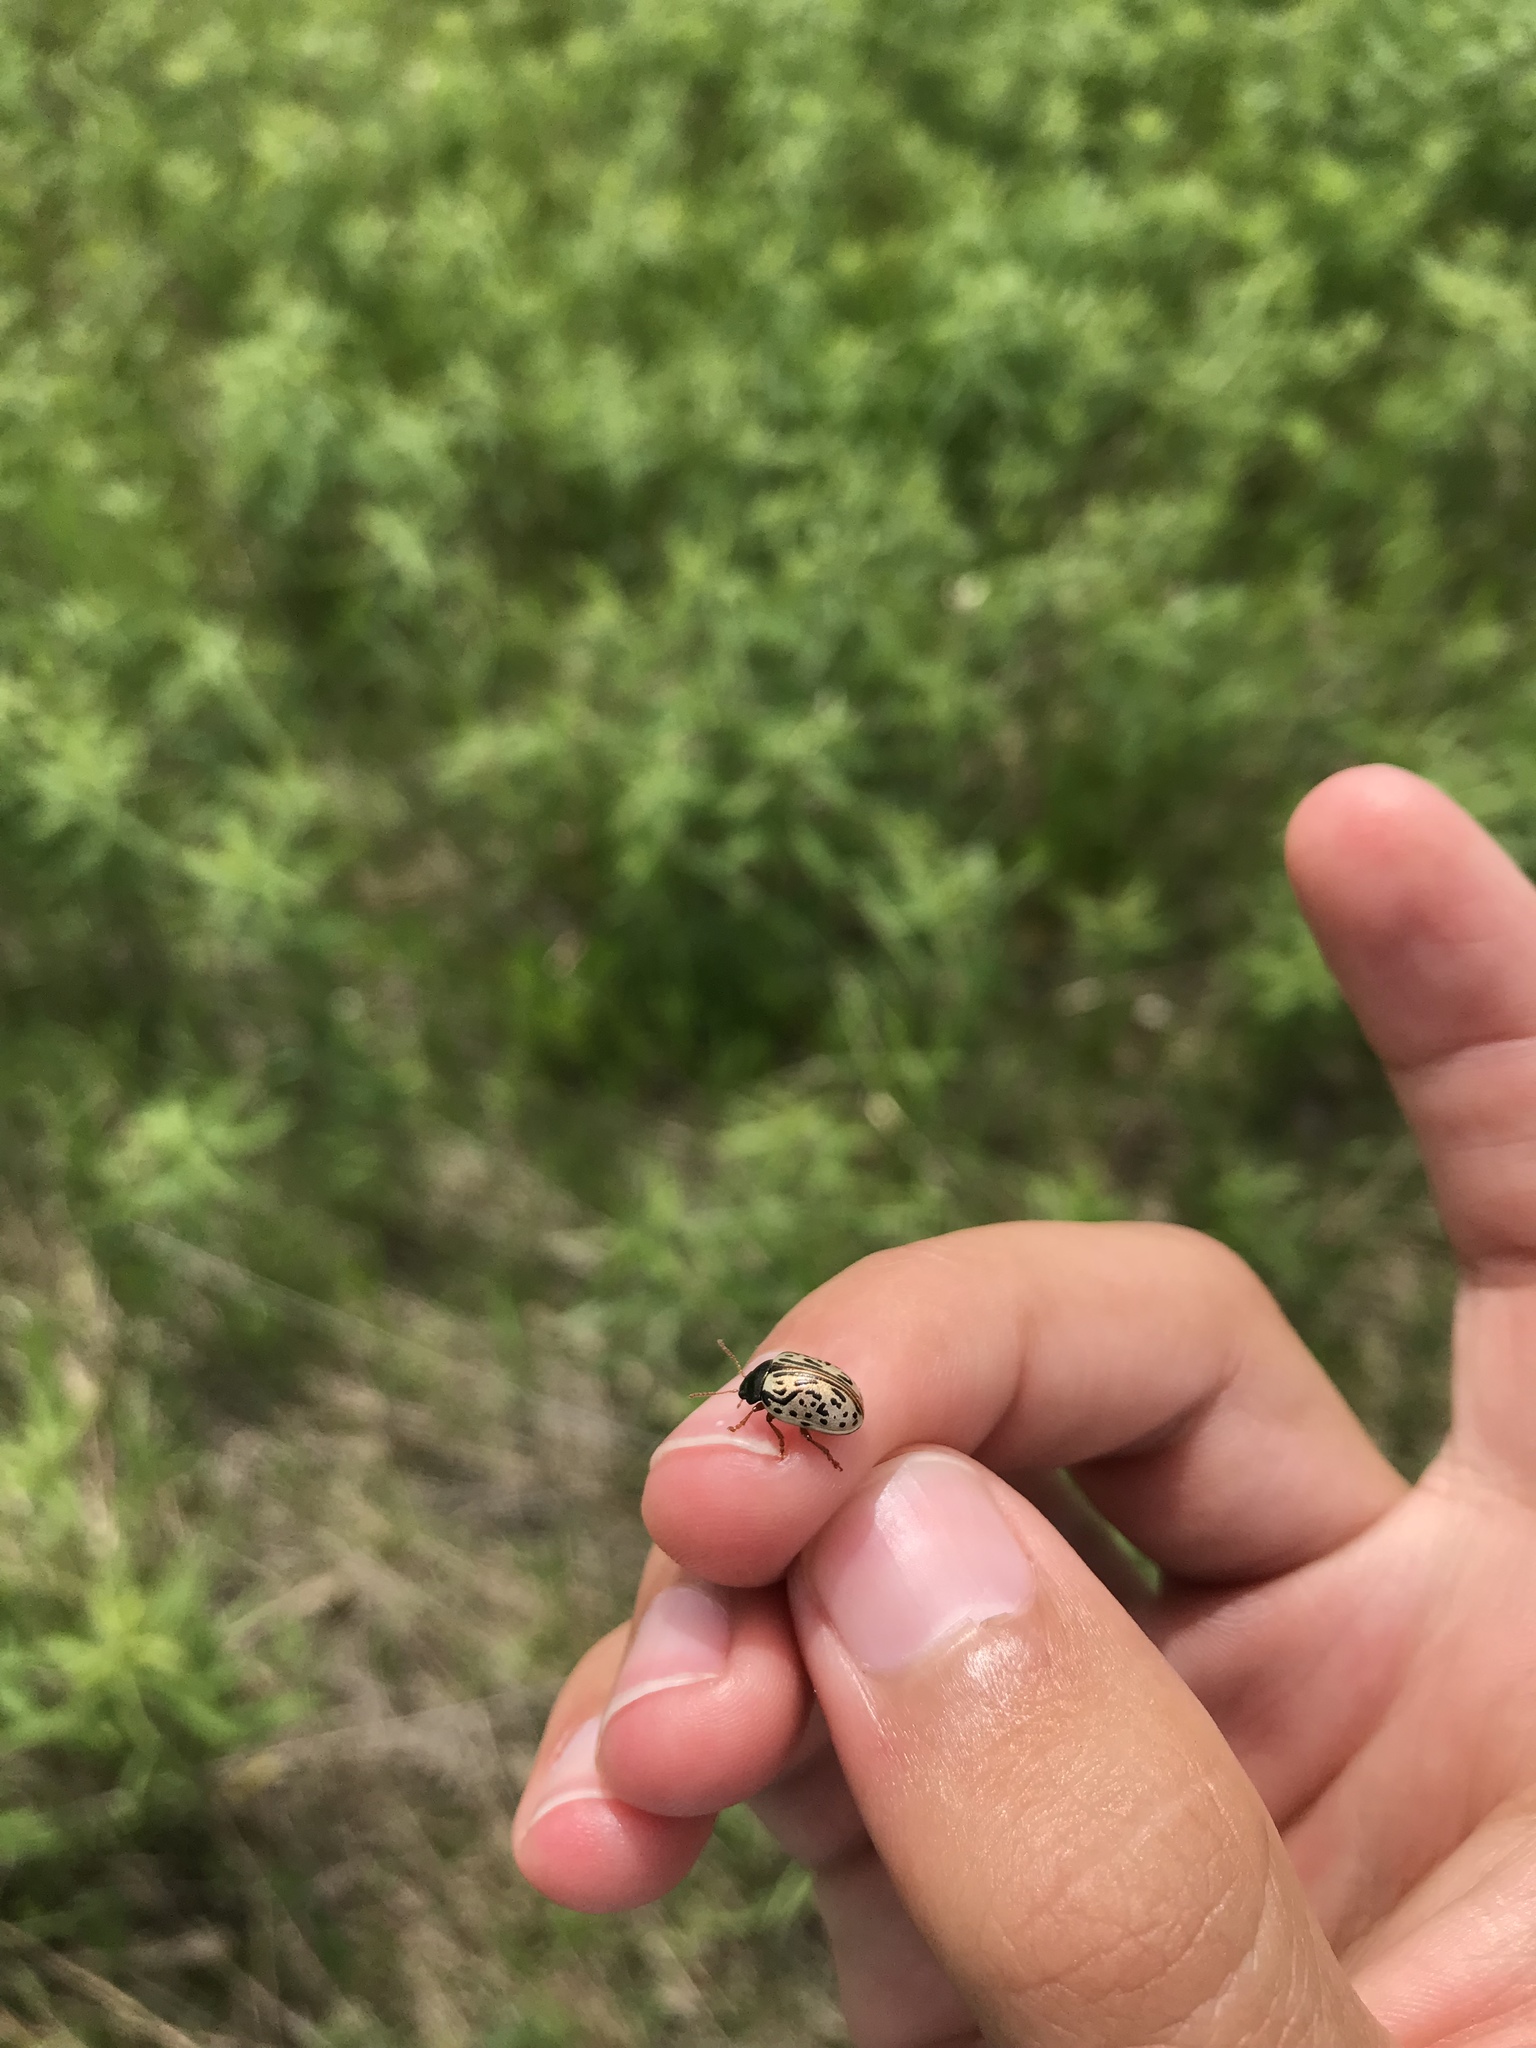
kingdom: Animalia
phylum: Arthropoda
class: Insecta
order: Coleoptera
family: Chrysomelidae
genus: Calligrapha
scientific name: Calligrapha philadelphica
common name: Dogwood leaf beetle
